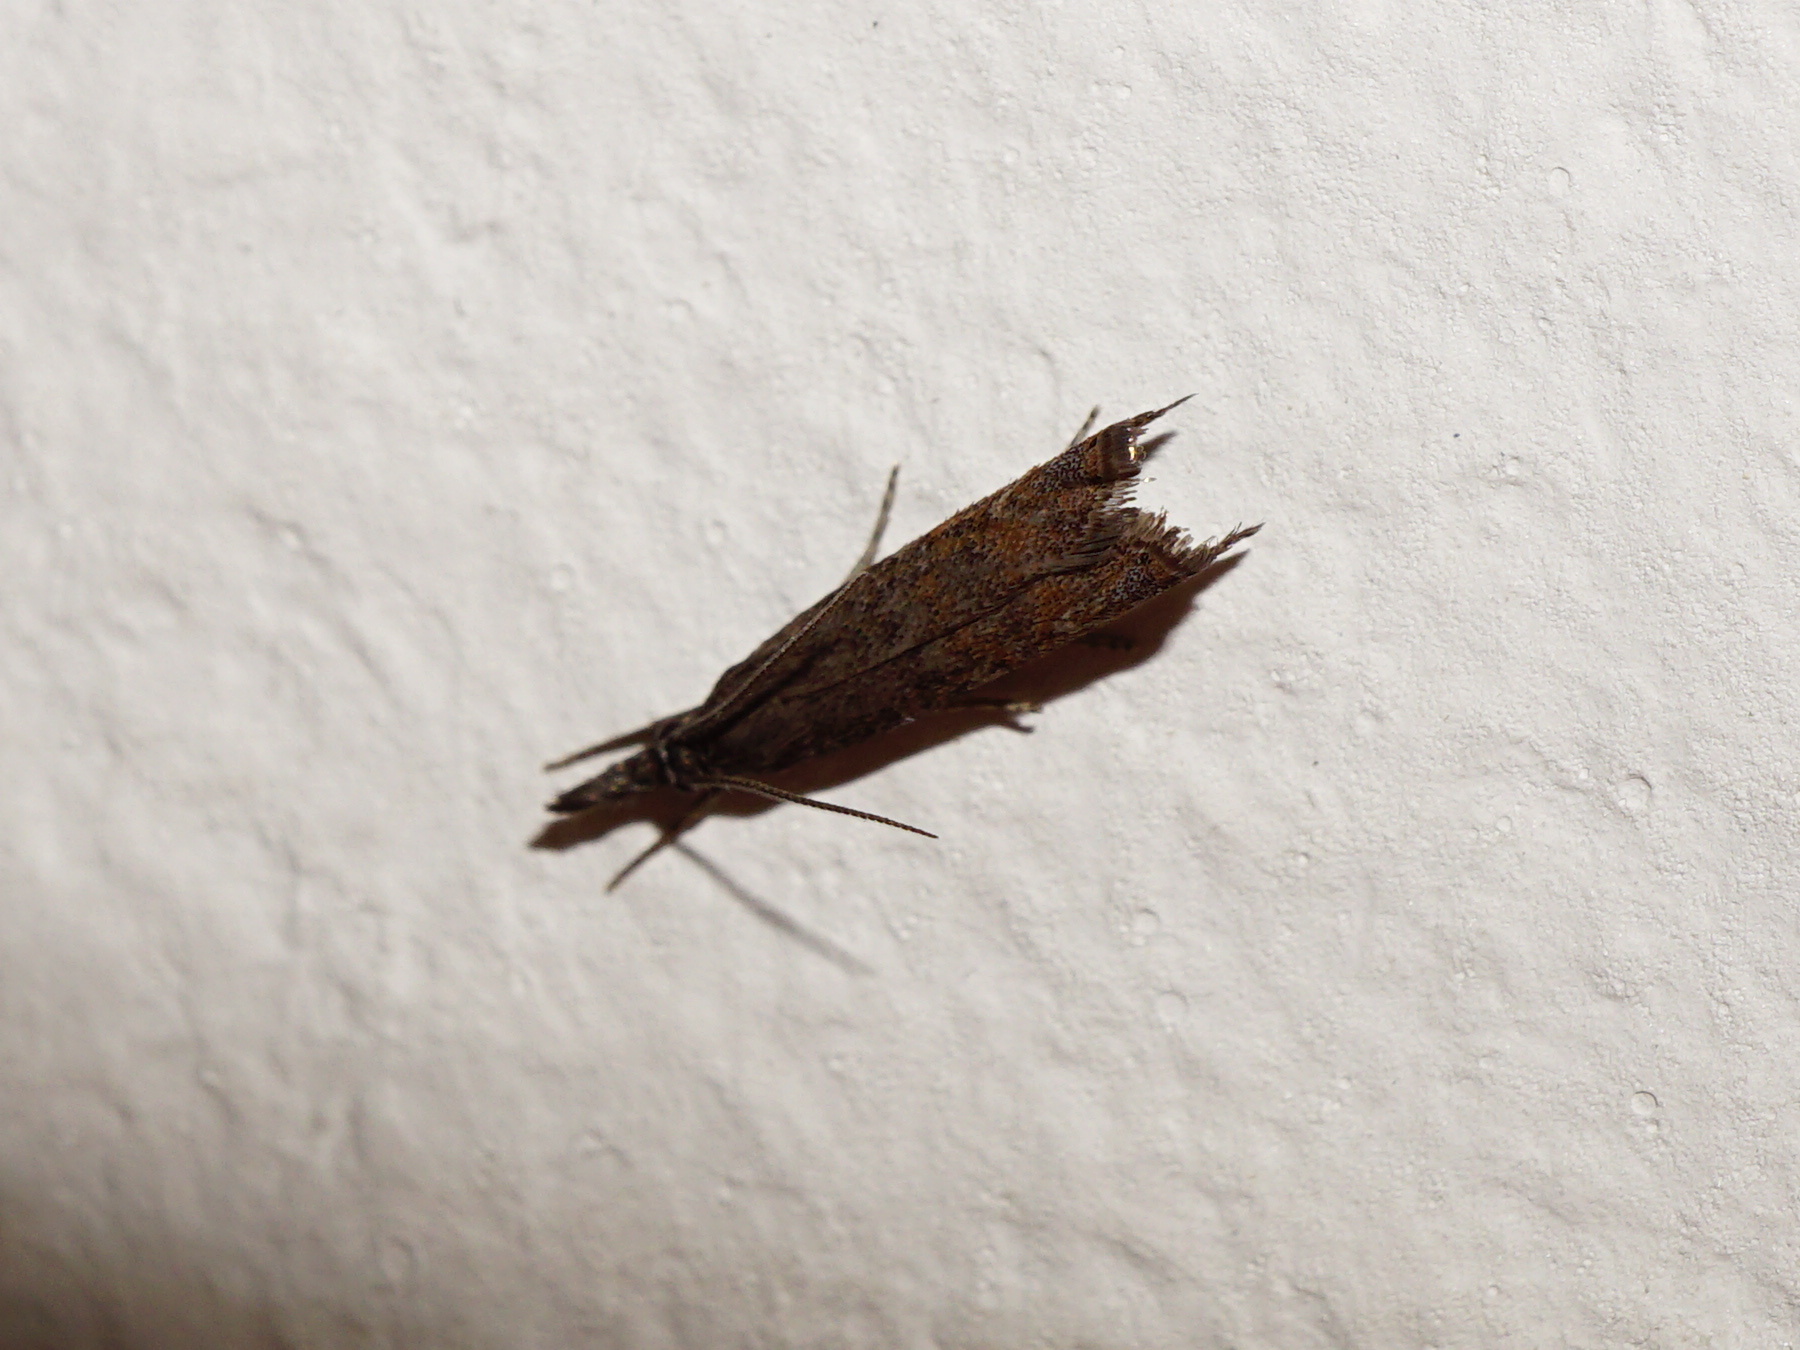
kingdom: Animalia
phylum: Arthropoda
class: Insecta
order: Lepidoptera
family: Crambidae
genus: Platytes
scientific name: Platytes cerusella
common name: Little grass-veneer
